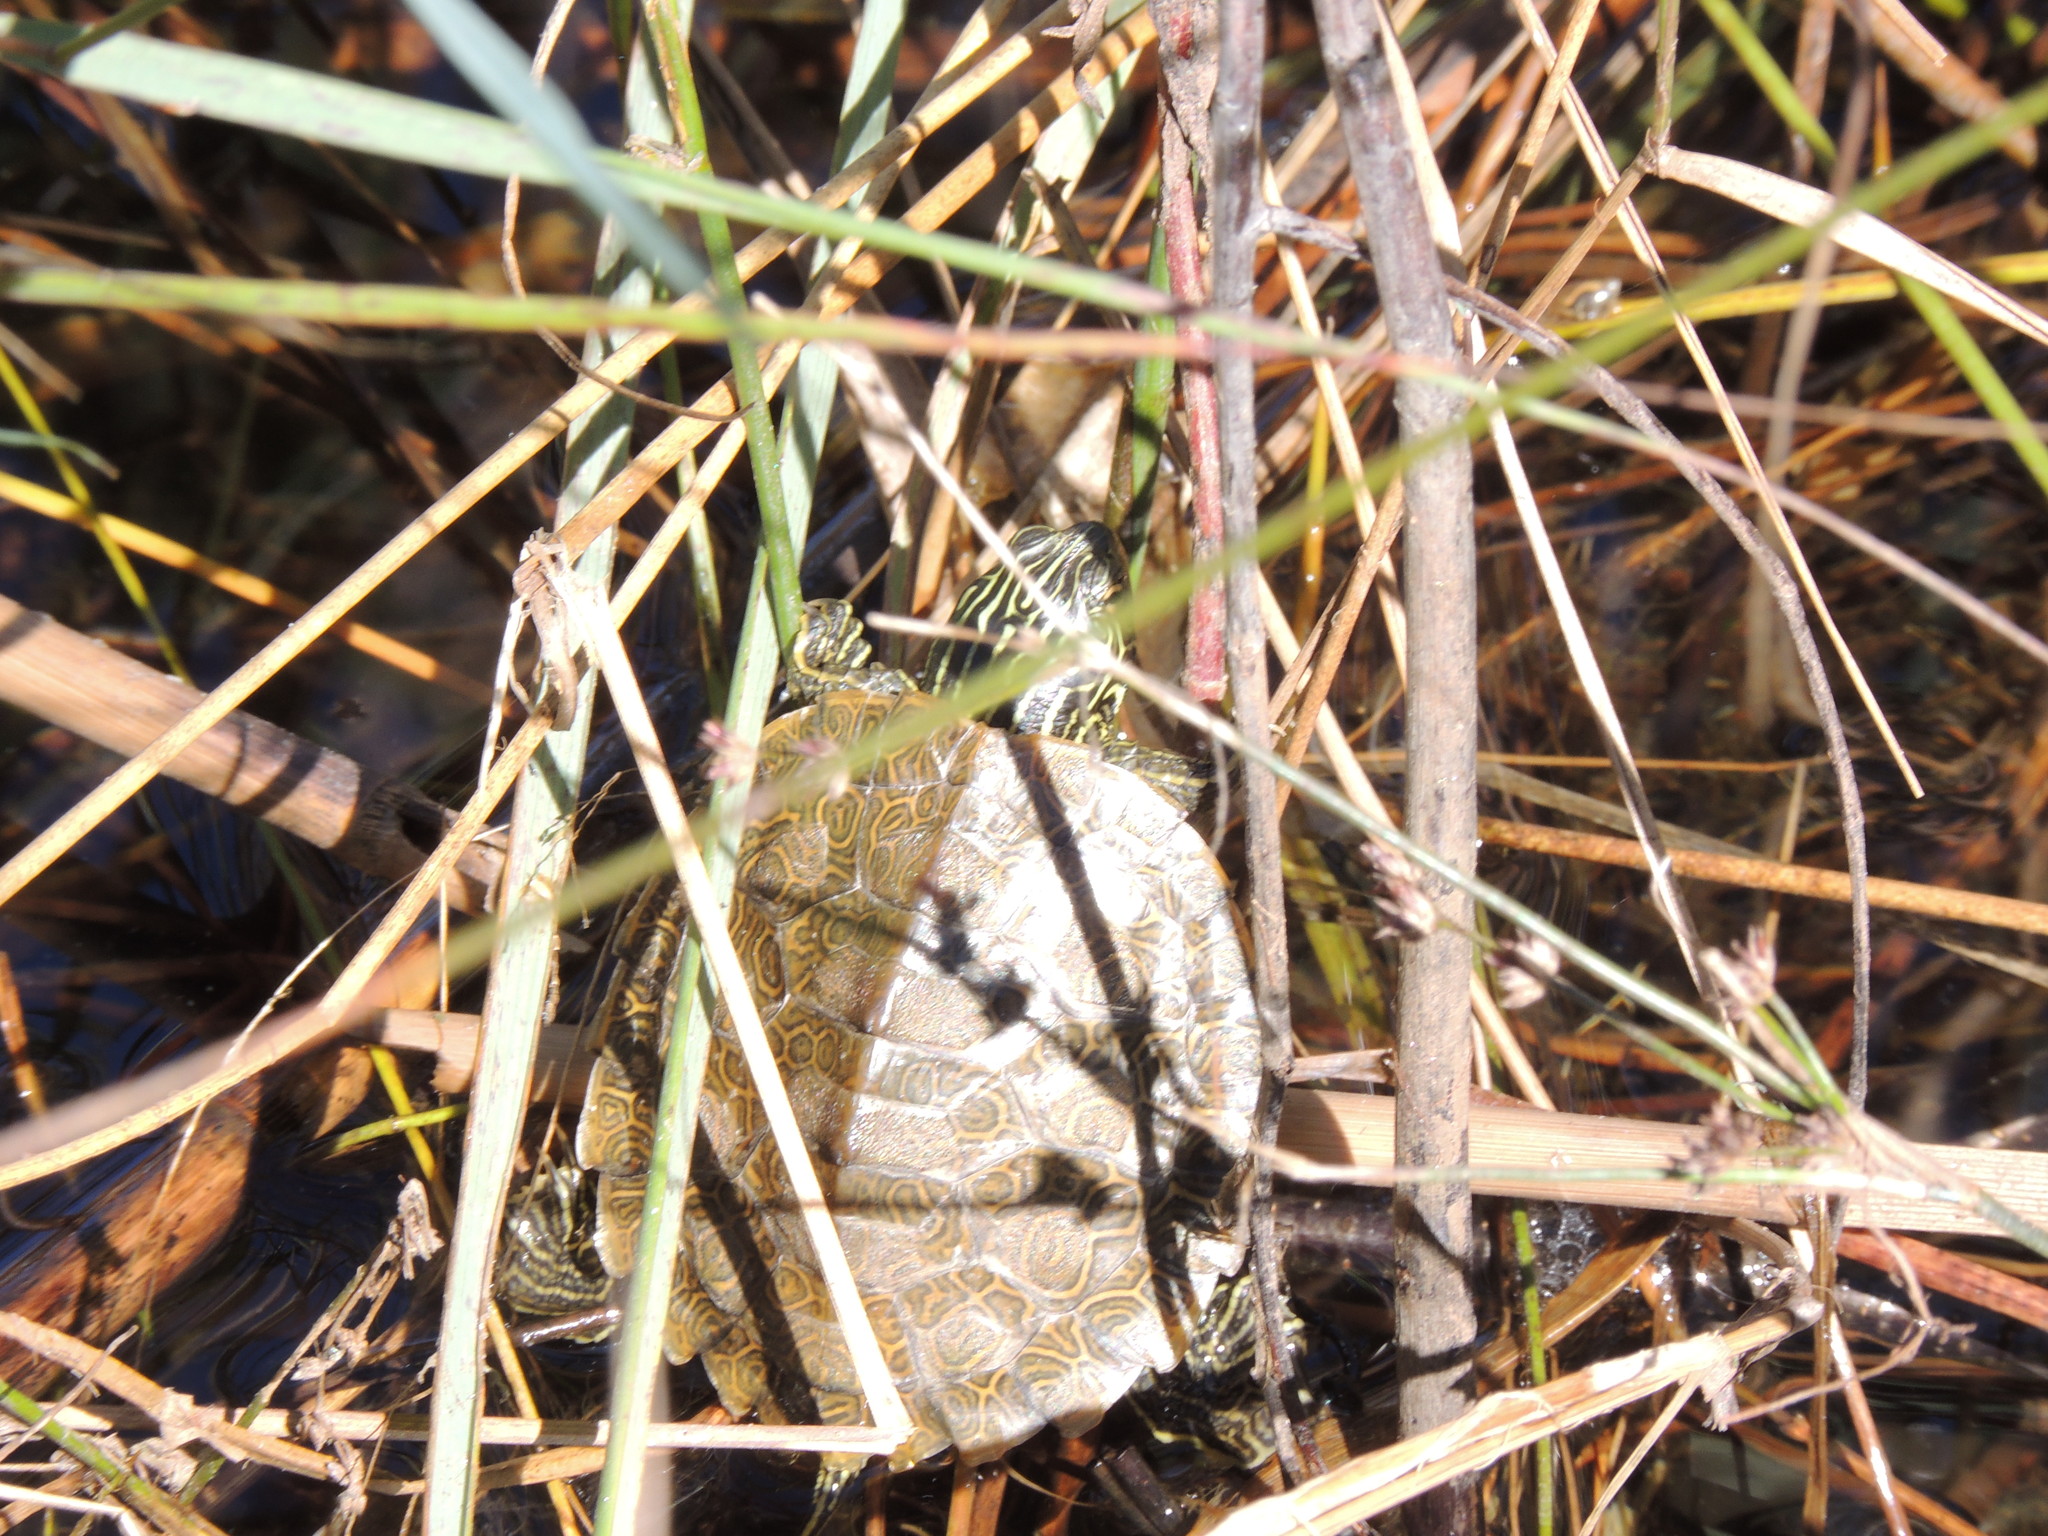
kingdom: Animalia
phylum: Chordata
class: Testudines
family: Emydidae
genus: Graptemys
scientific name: Graptemys geographica
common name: Common map turtle
